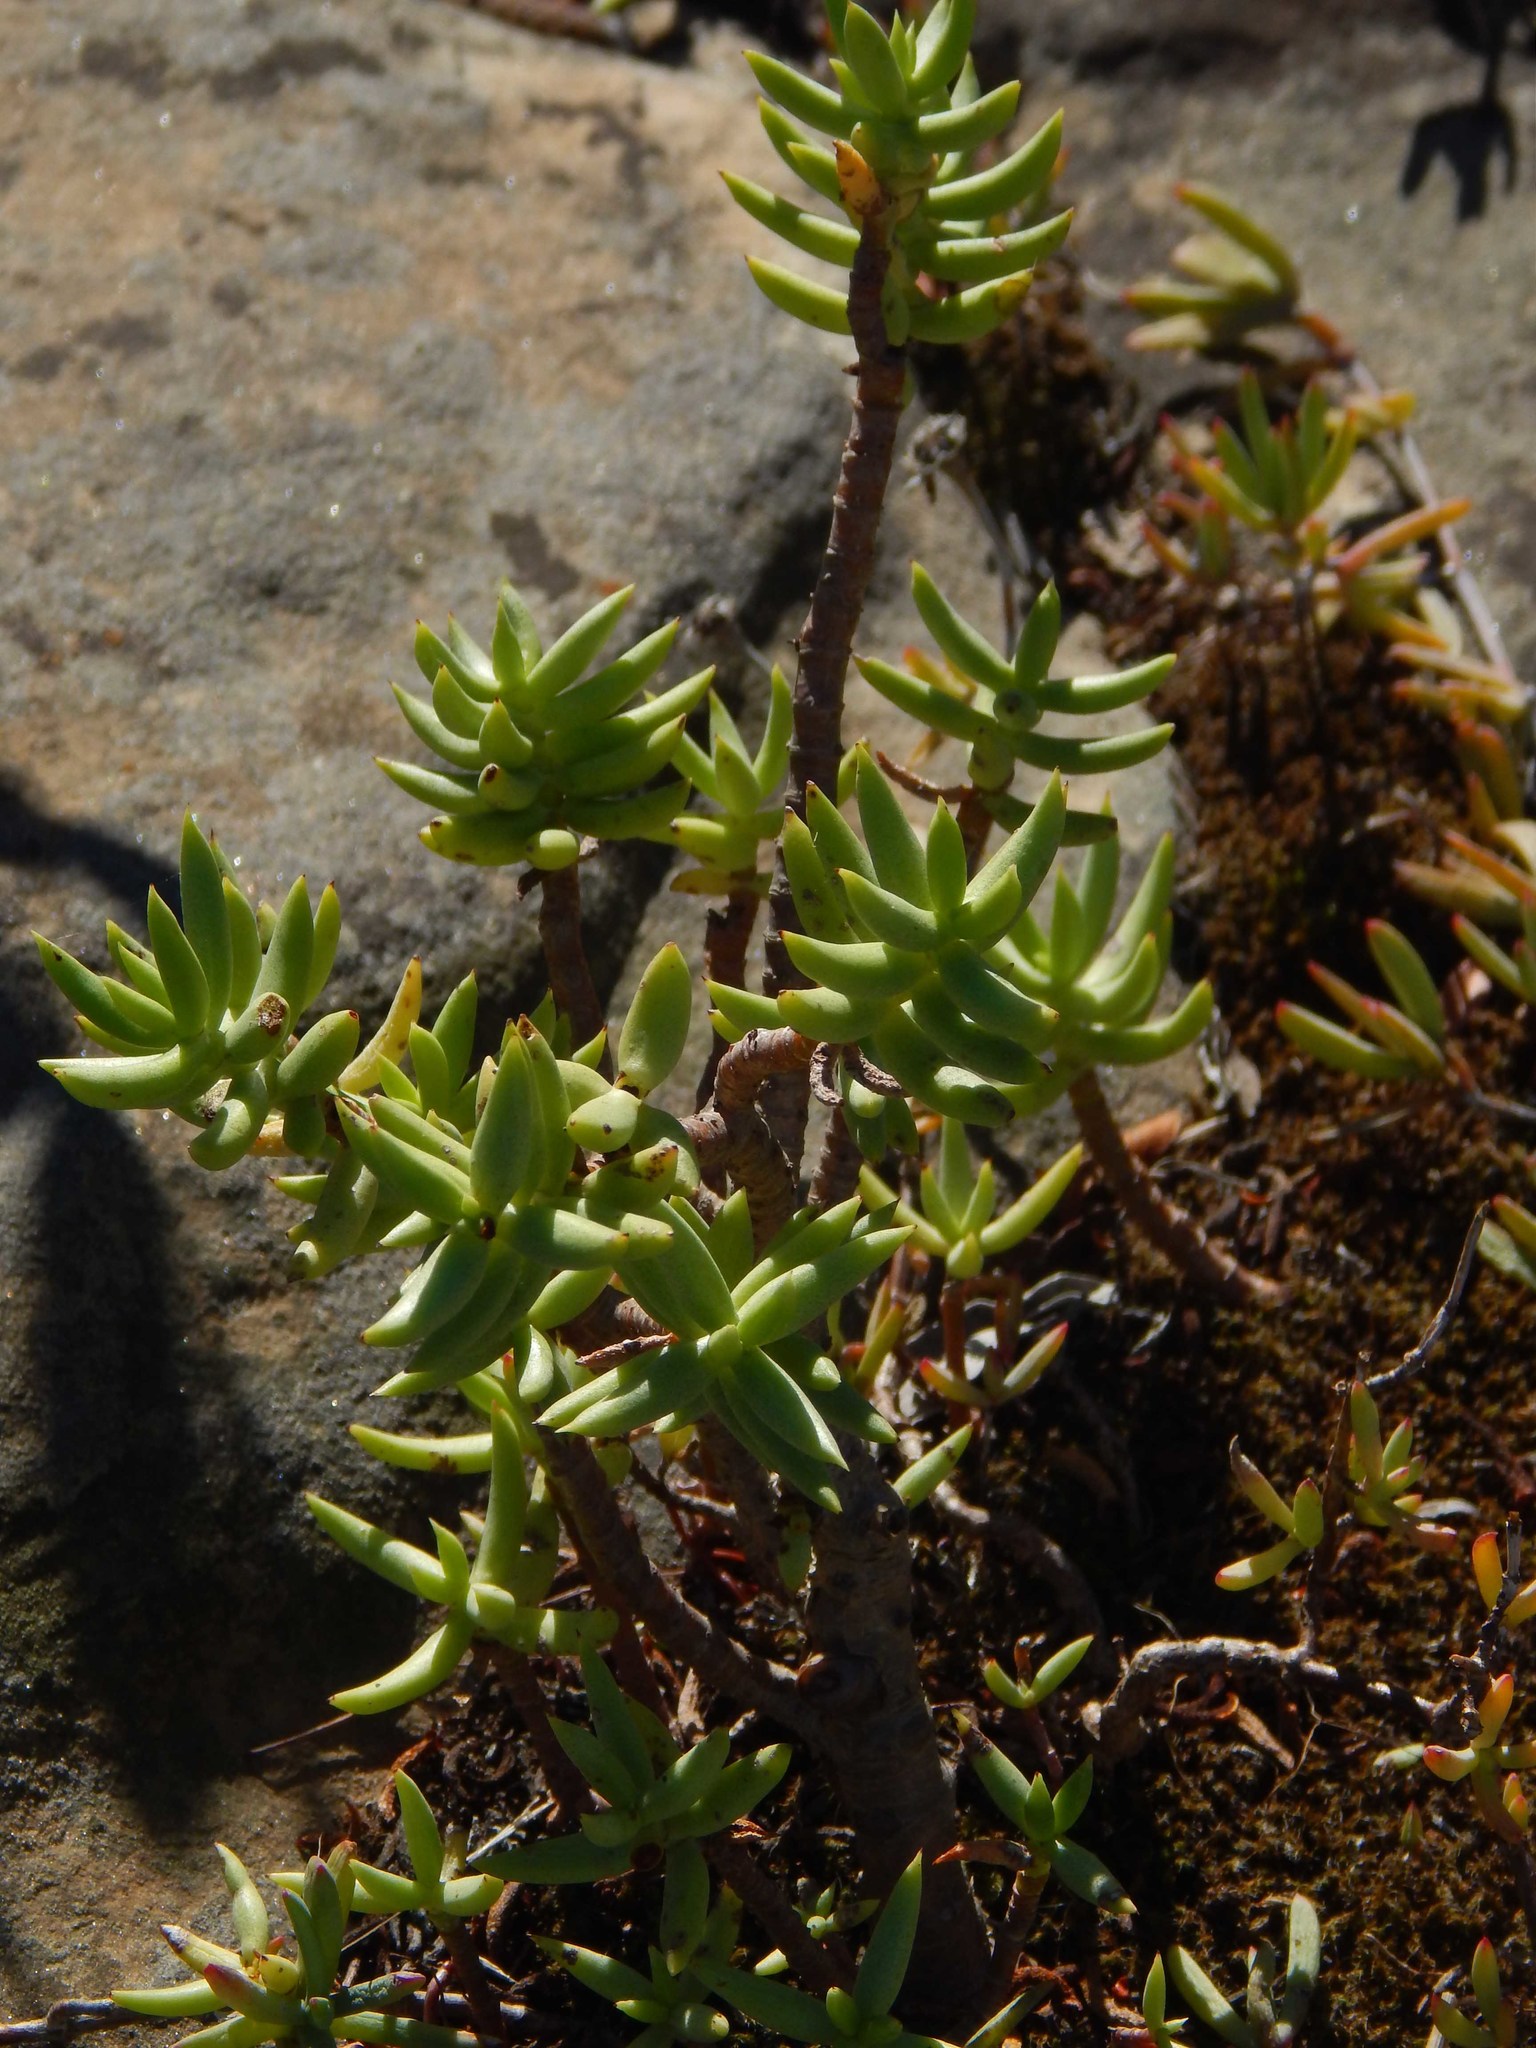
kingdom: Plantae
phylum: Tracheophyta
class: Magnoliopsida
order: Saxifragales
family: Crassulaceae
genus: Crassula
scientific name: Crassula tetragona
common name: Pygmyweed
